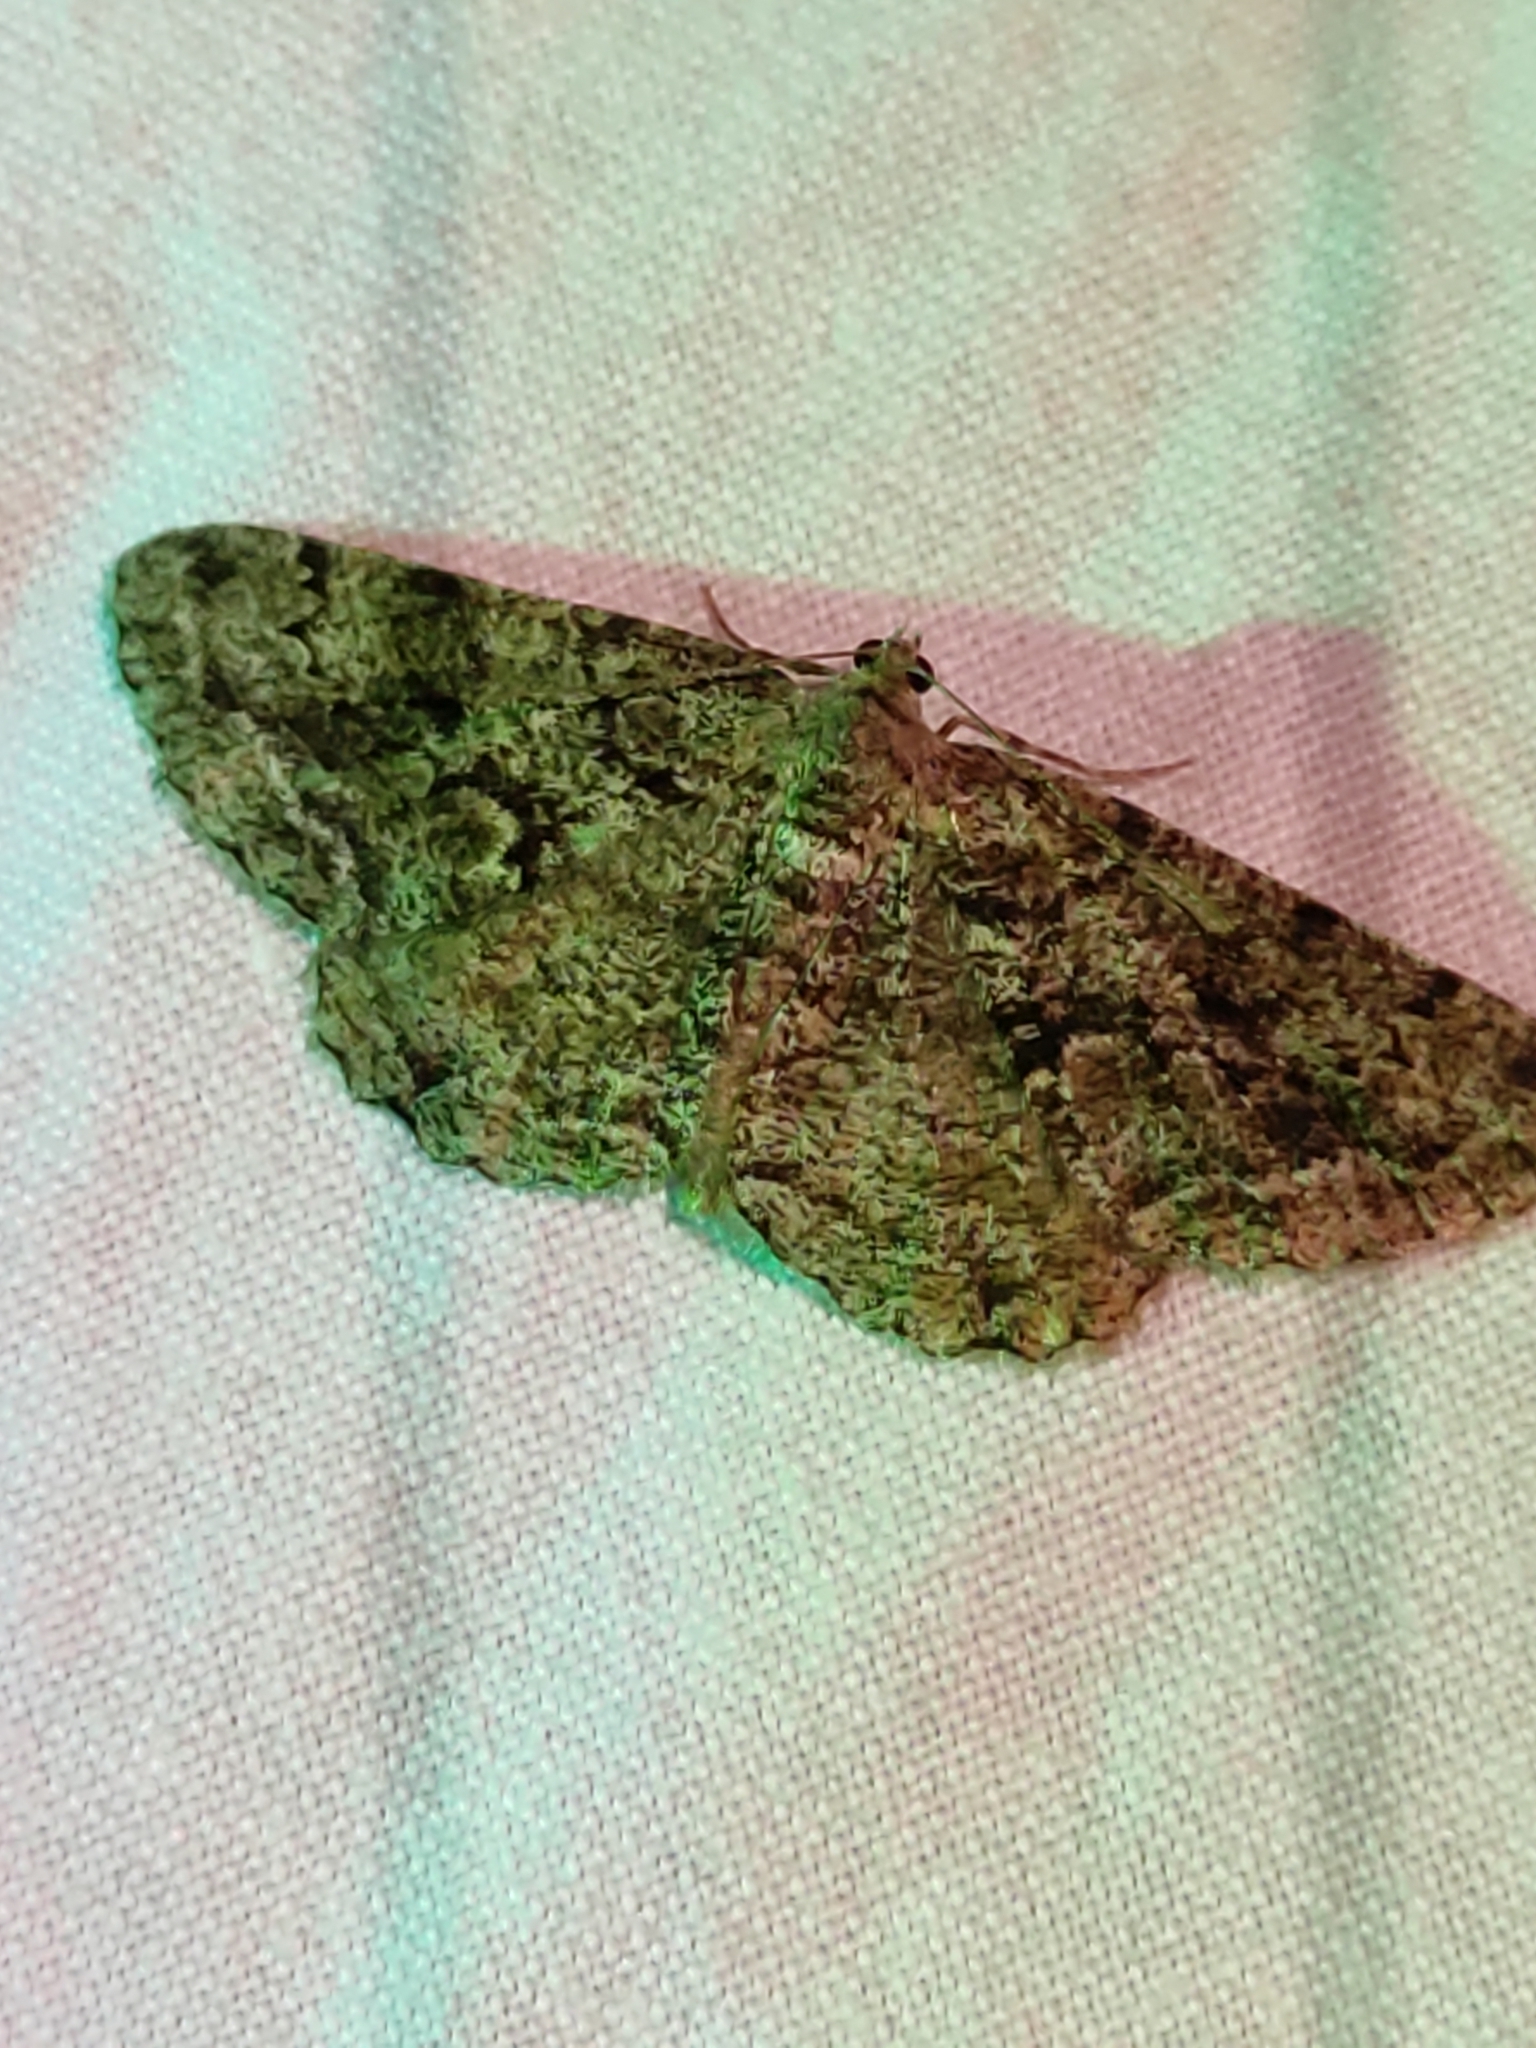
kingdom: Animalia
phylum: Arthropoda
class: Insecta
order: Lepidoptera
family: Geometridae
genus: Peribatodes
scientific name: Peribatodes secundaria
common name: Feathered beauty
